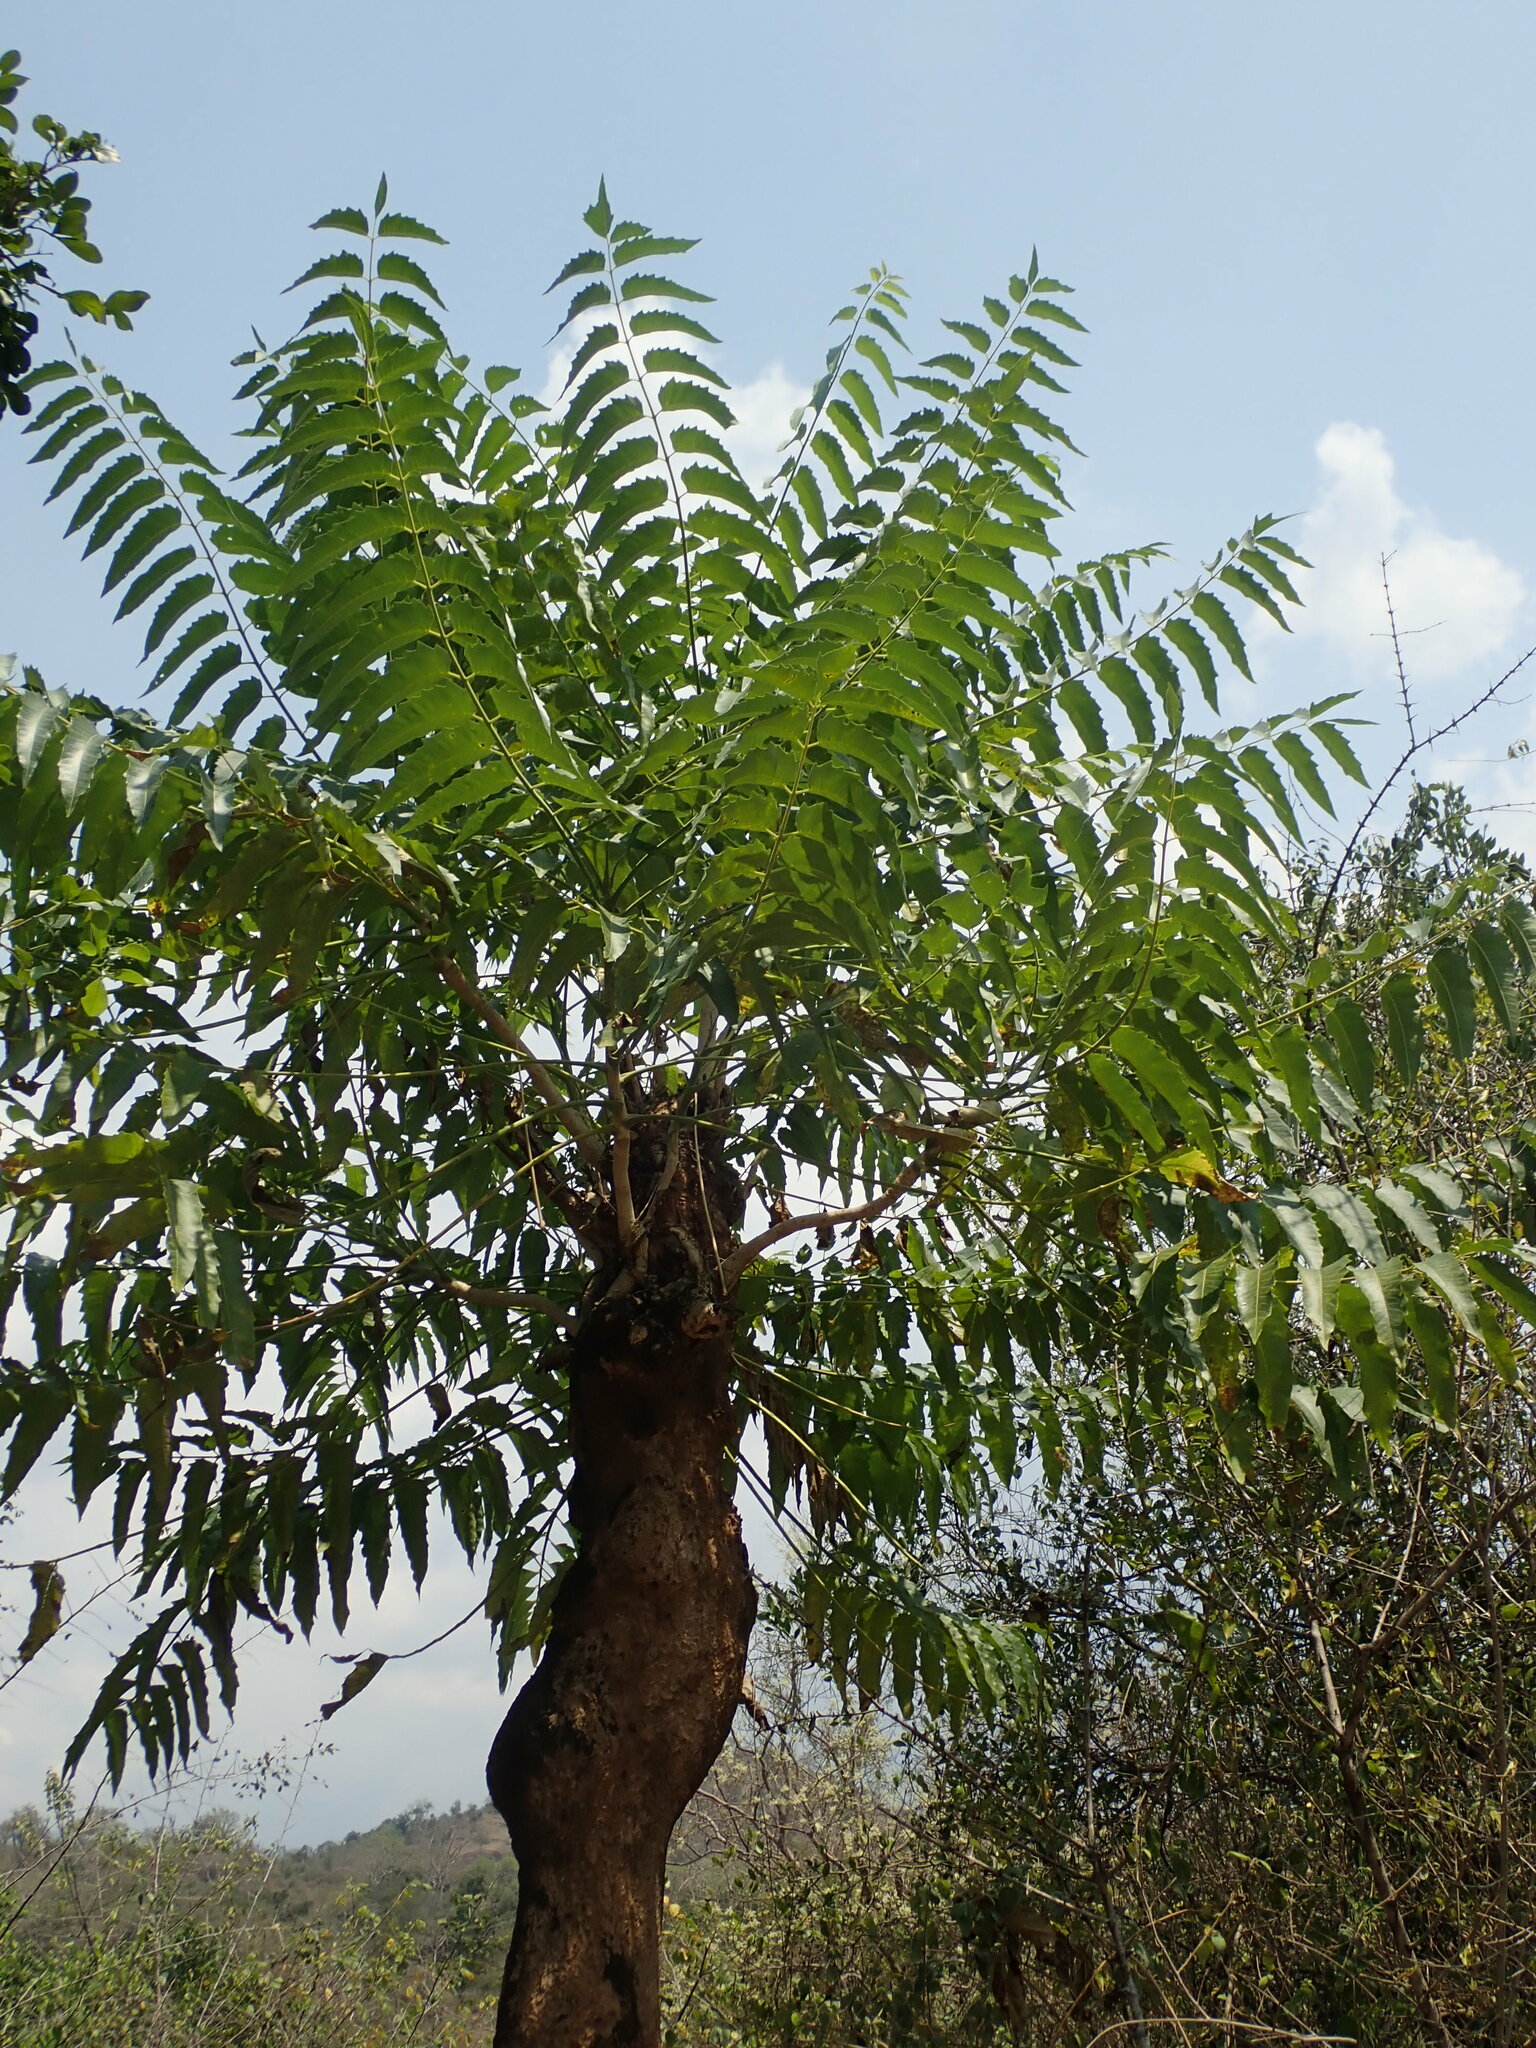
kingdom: Plantae
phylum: Tracheophyta
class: Magnoliopsida
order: Sapindales
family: Simaroubaceae
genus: Ailanthus
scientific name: Ailanthus excelsa
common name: Indian tree-of-heaven
